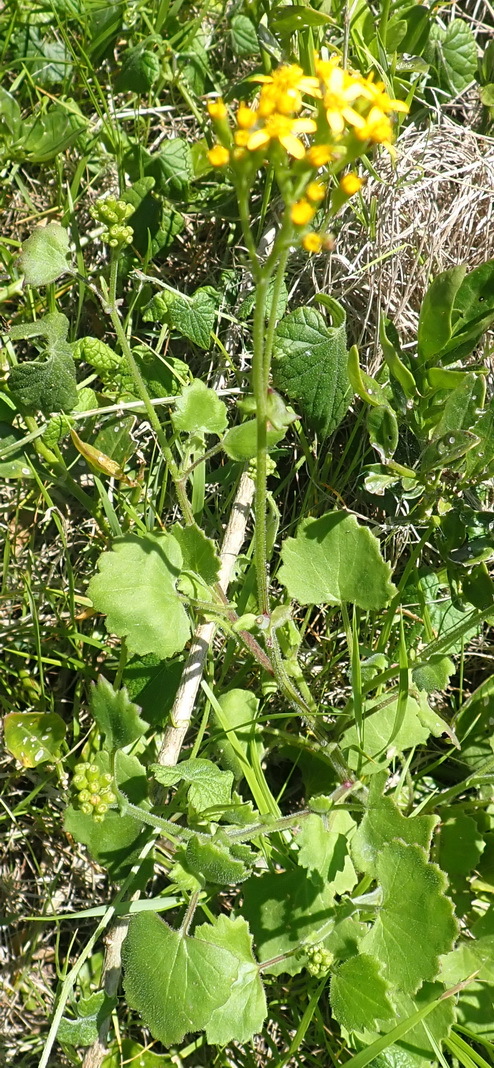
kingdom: Plantae
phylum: Tracheophyta
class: Magnoliopsida
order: Asterales
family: Asteraceae
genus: Cineraria
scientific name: Cineraria geifolia
